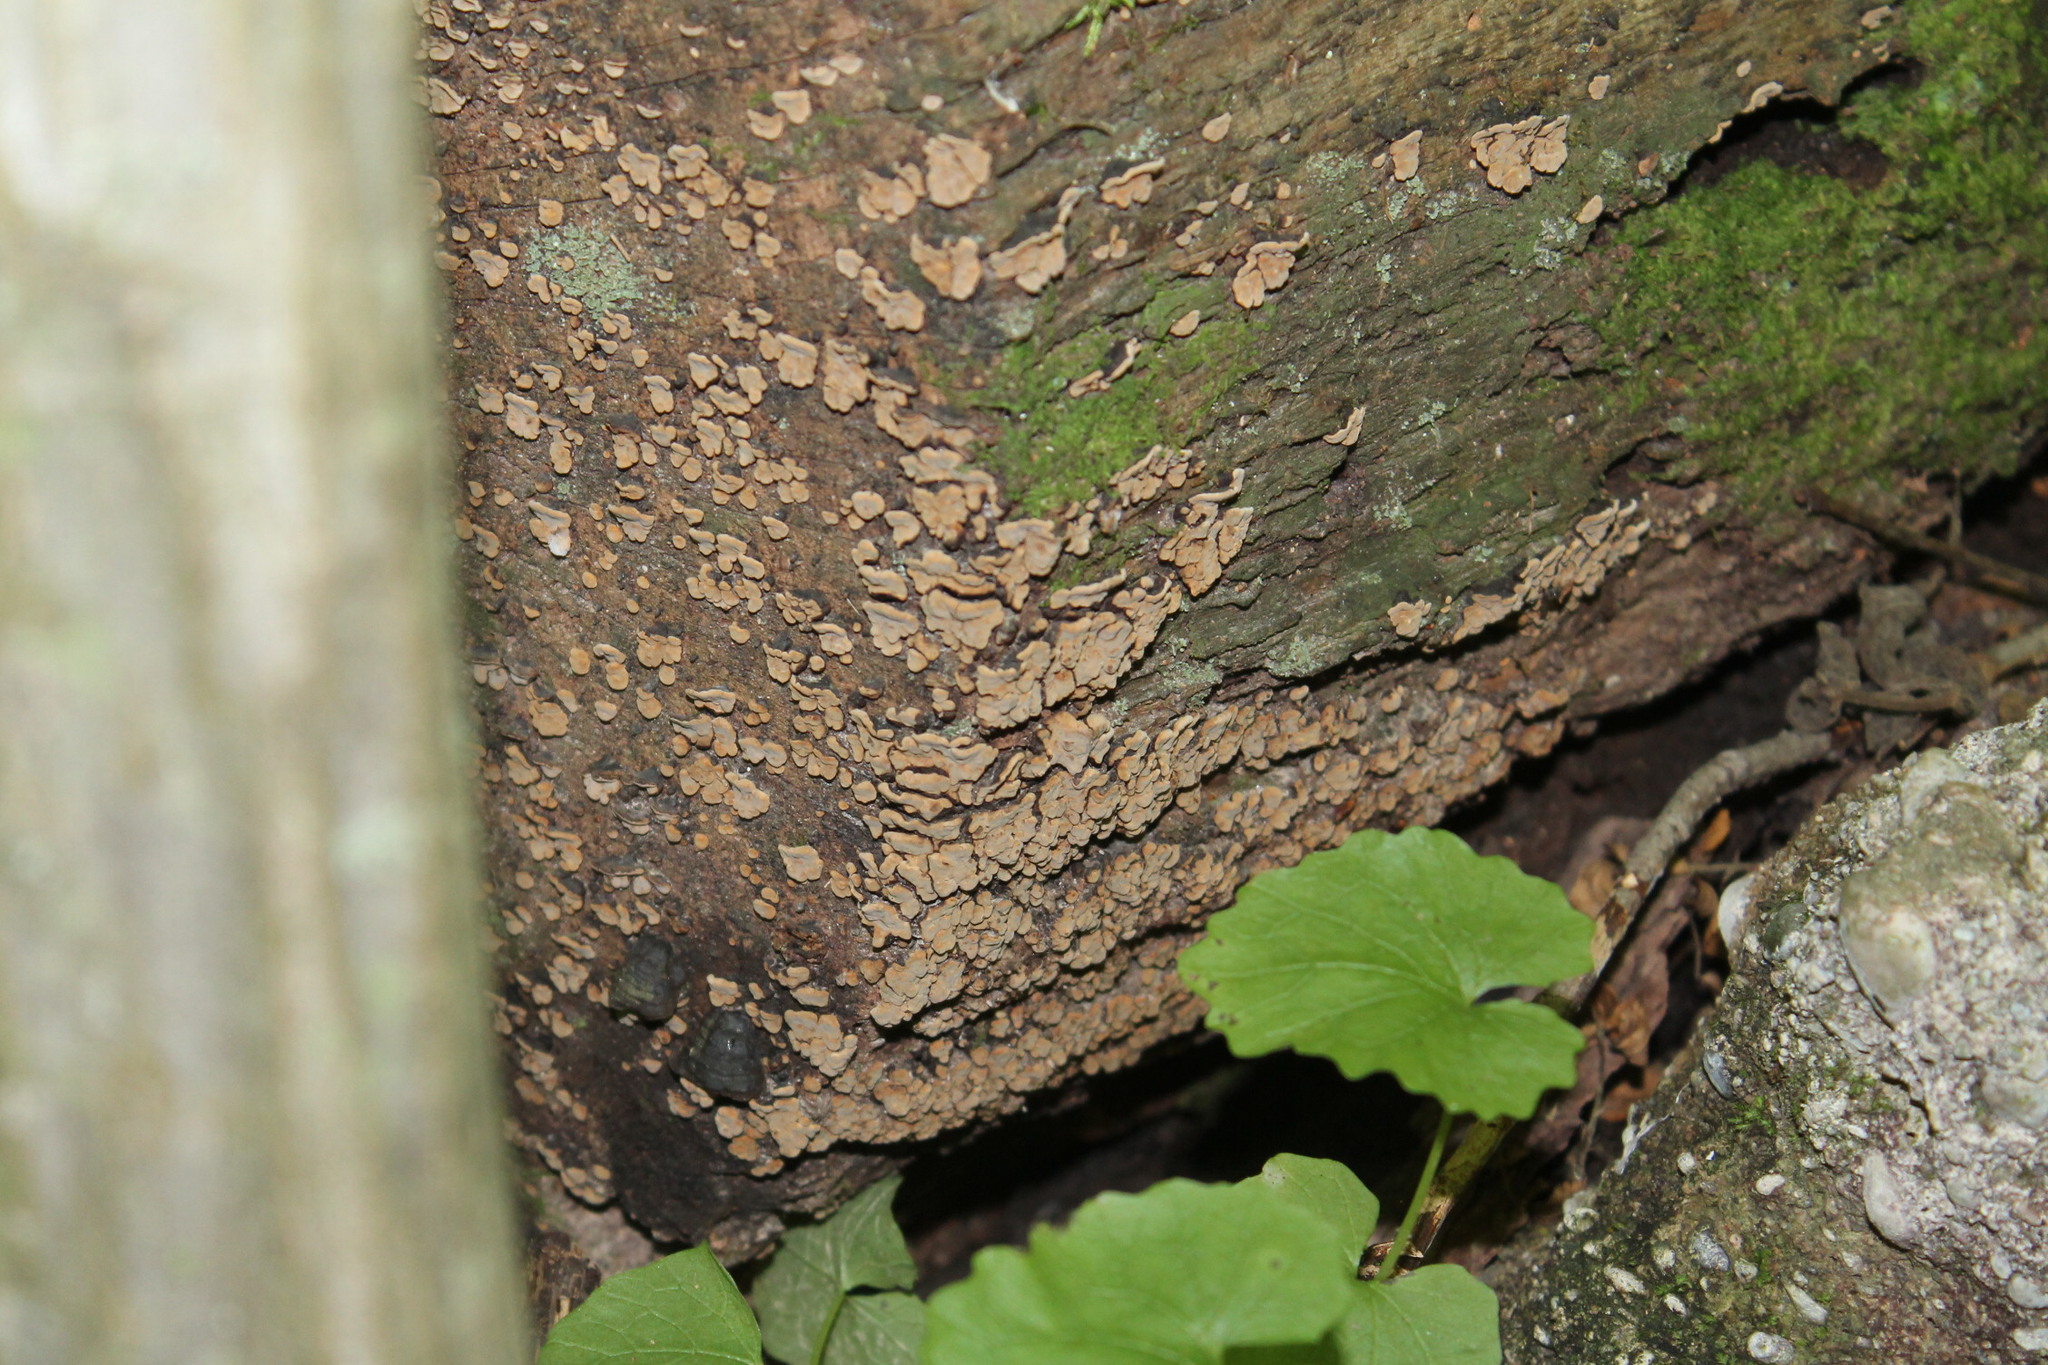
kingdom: Fungi
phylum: Basidiomycota
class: Agaricomycetes
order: Russulales
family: Stereaceae
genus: Xylobolus
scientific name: Xylobolus frustulatus
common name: Ceramic parchment
